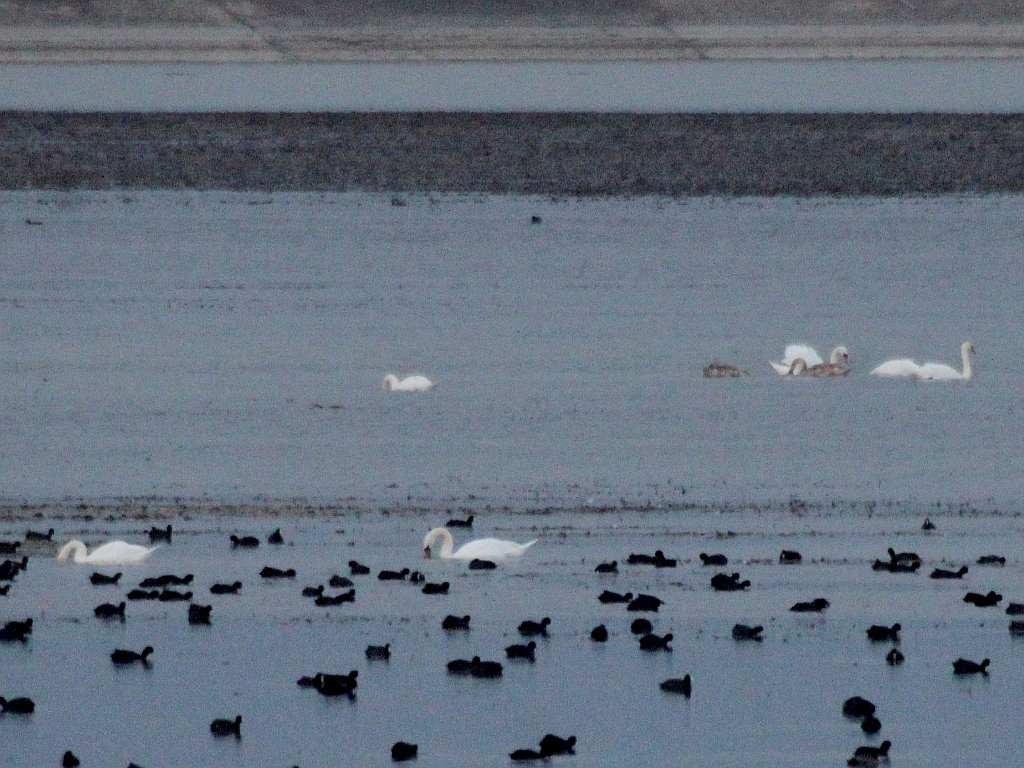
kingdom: Animalia
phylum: Chordata
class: Aves
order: Anseriformes
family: Anatidae
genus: Cygnus
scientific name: Cygnus olor
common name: Mute swan
